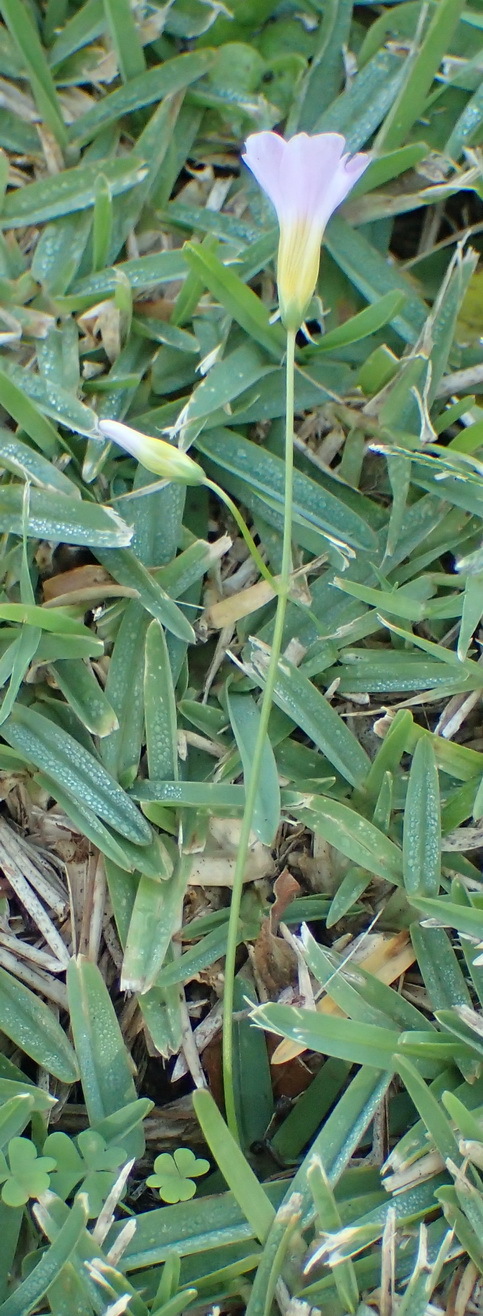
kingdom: Plantae
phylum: Tracheophyta
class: Magnoliopsida
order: Oxalidales
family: Oxalidaceae
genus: Oxalis
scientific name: Oxalis caprina
